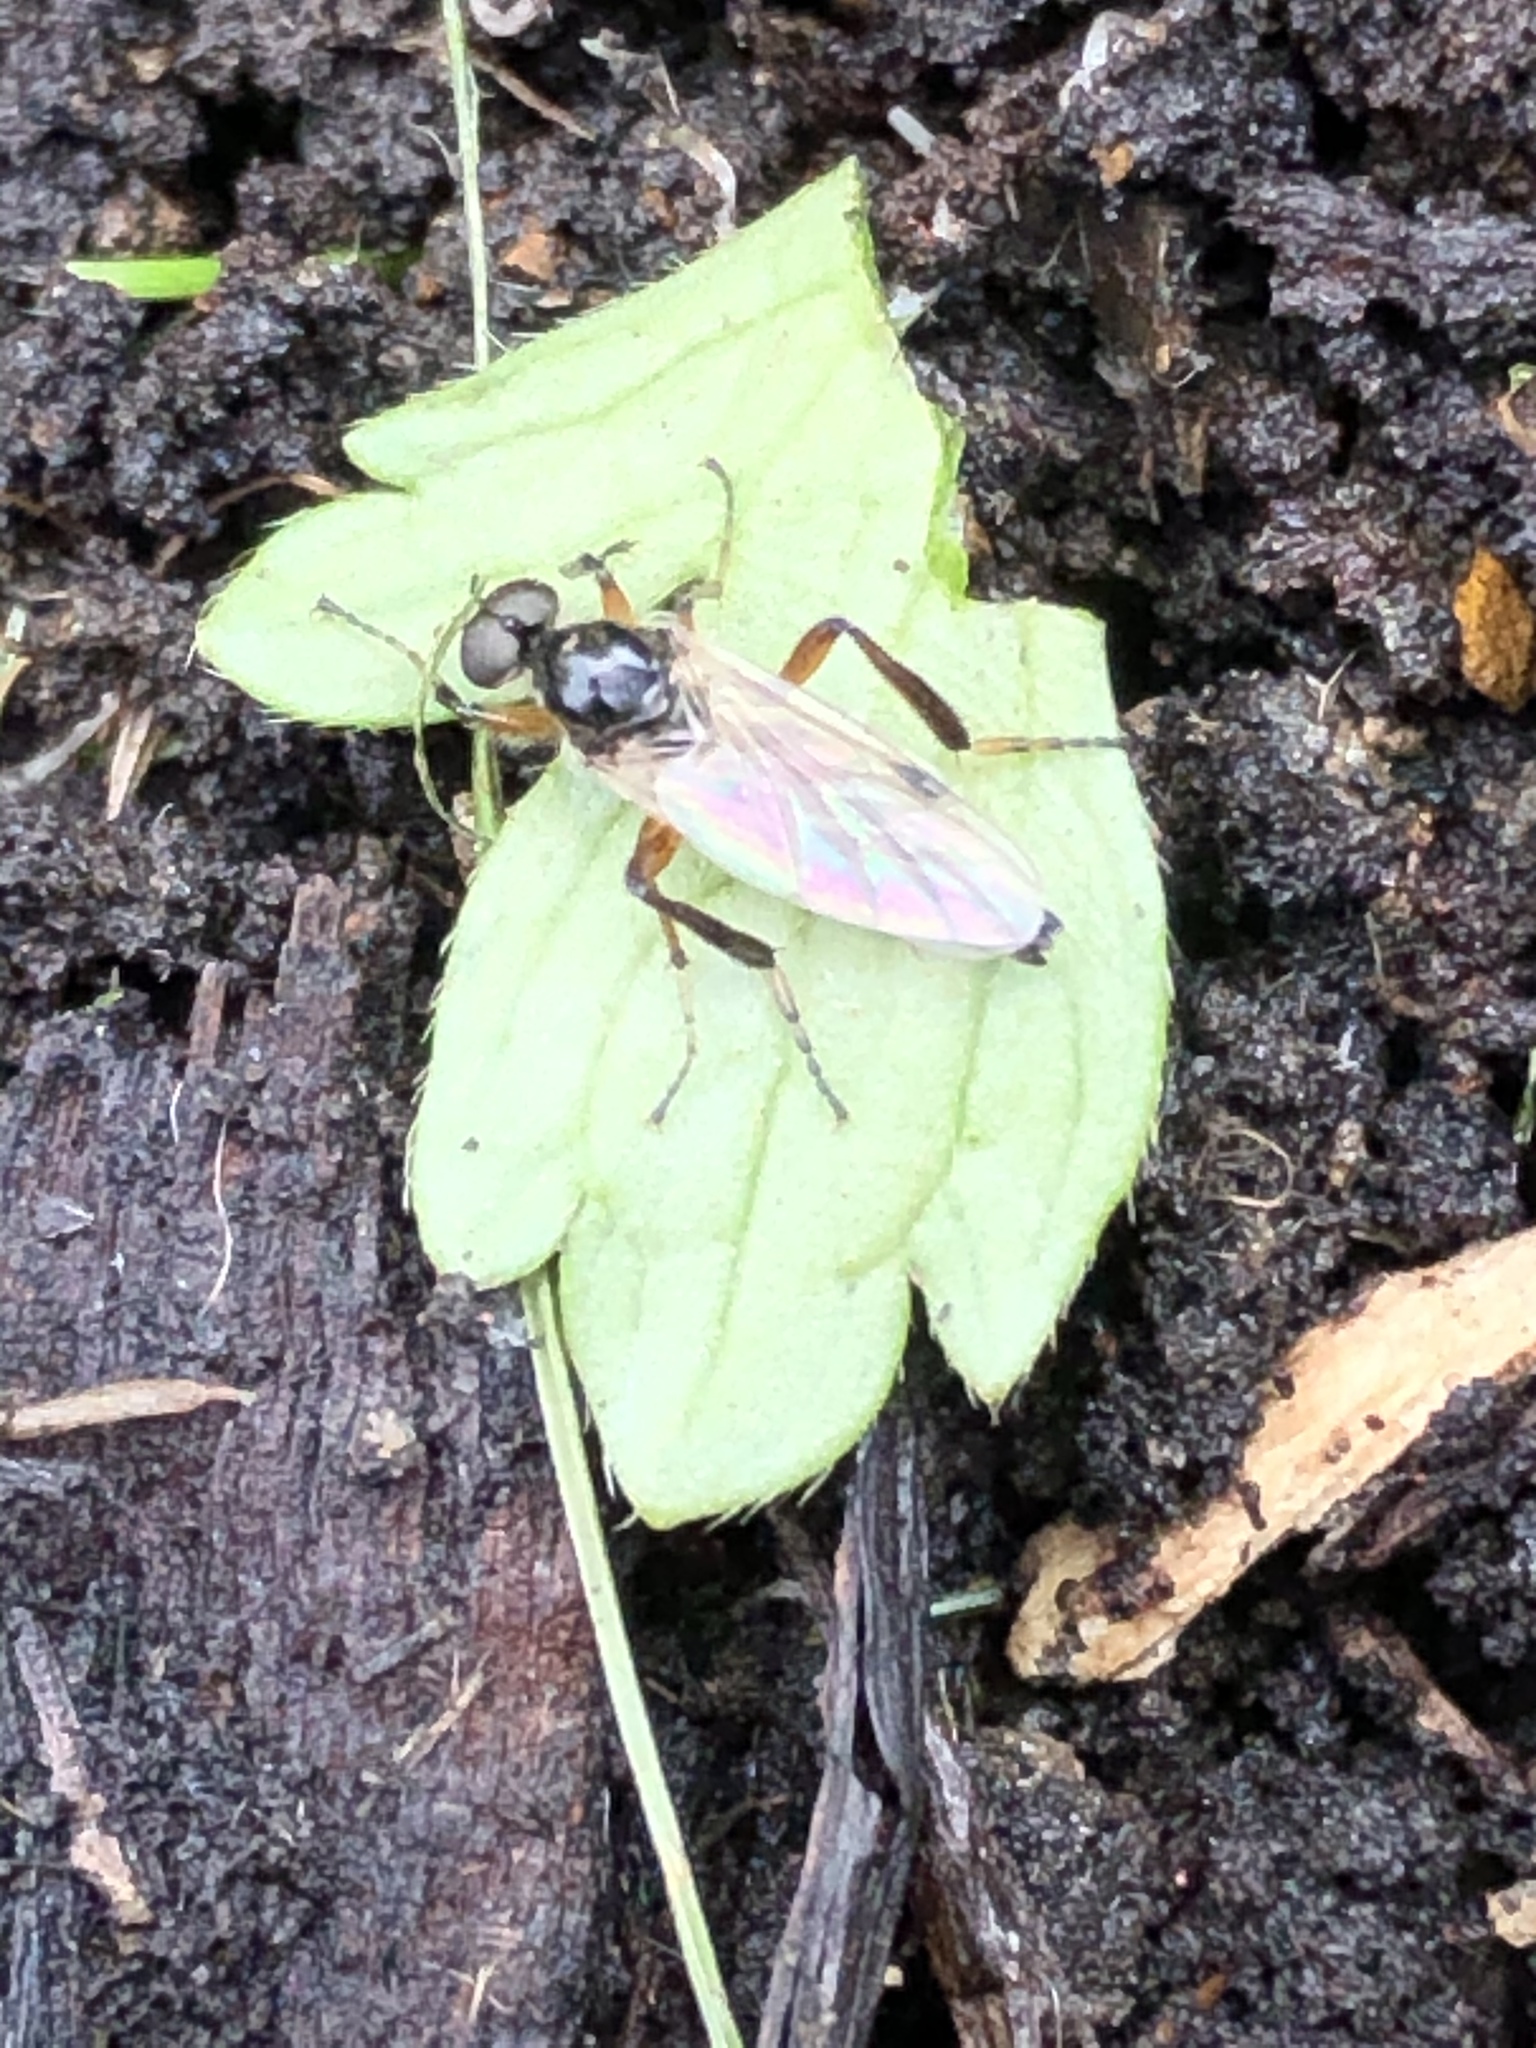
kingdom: Animalia
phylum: Arthropoda
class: Insecta
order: Diptera
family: Bibionidae
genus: Bibio
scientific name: Bibio
